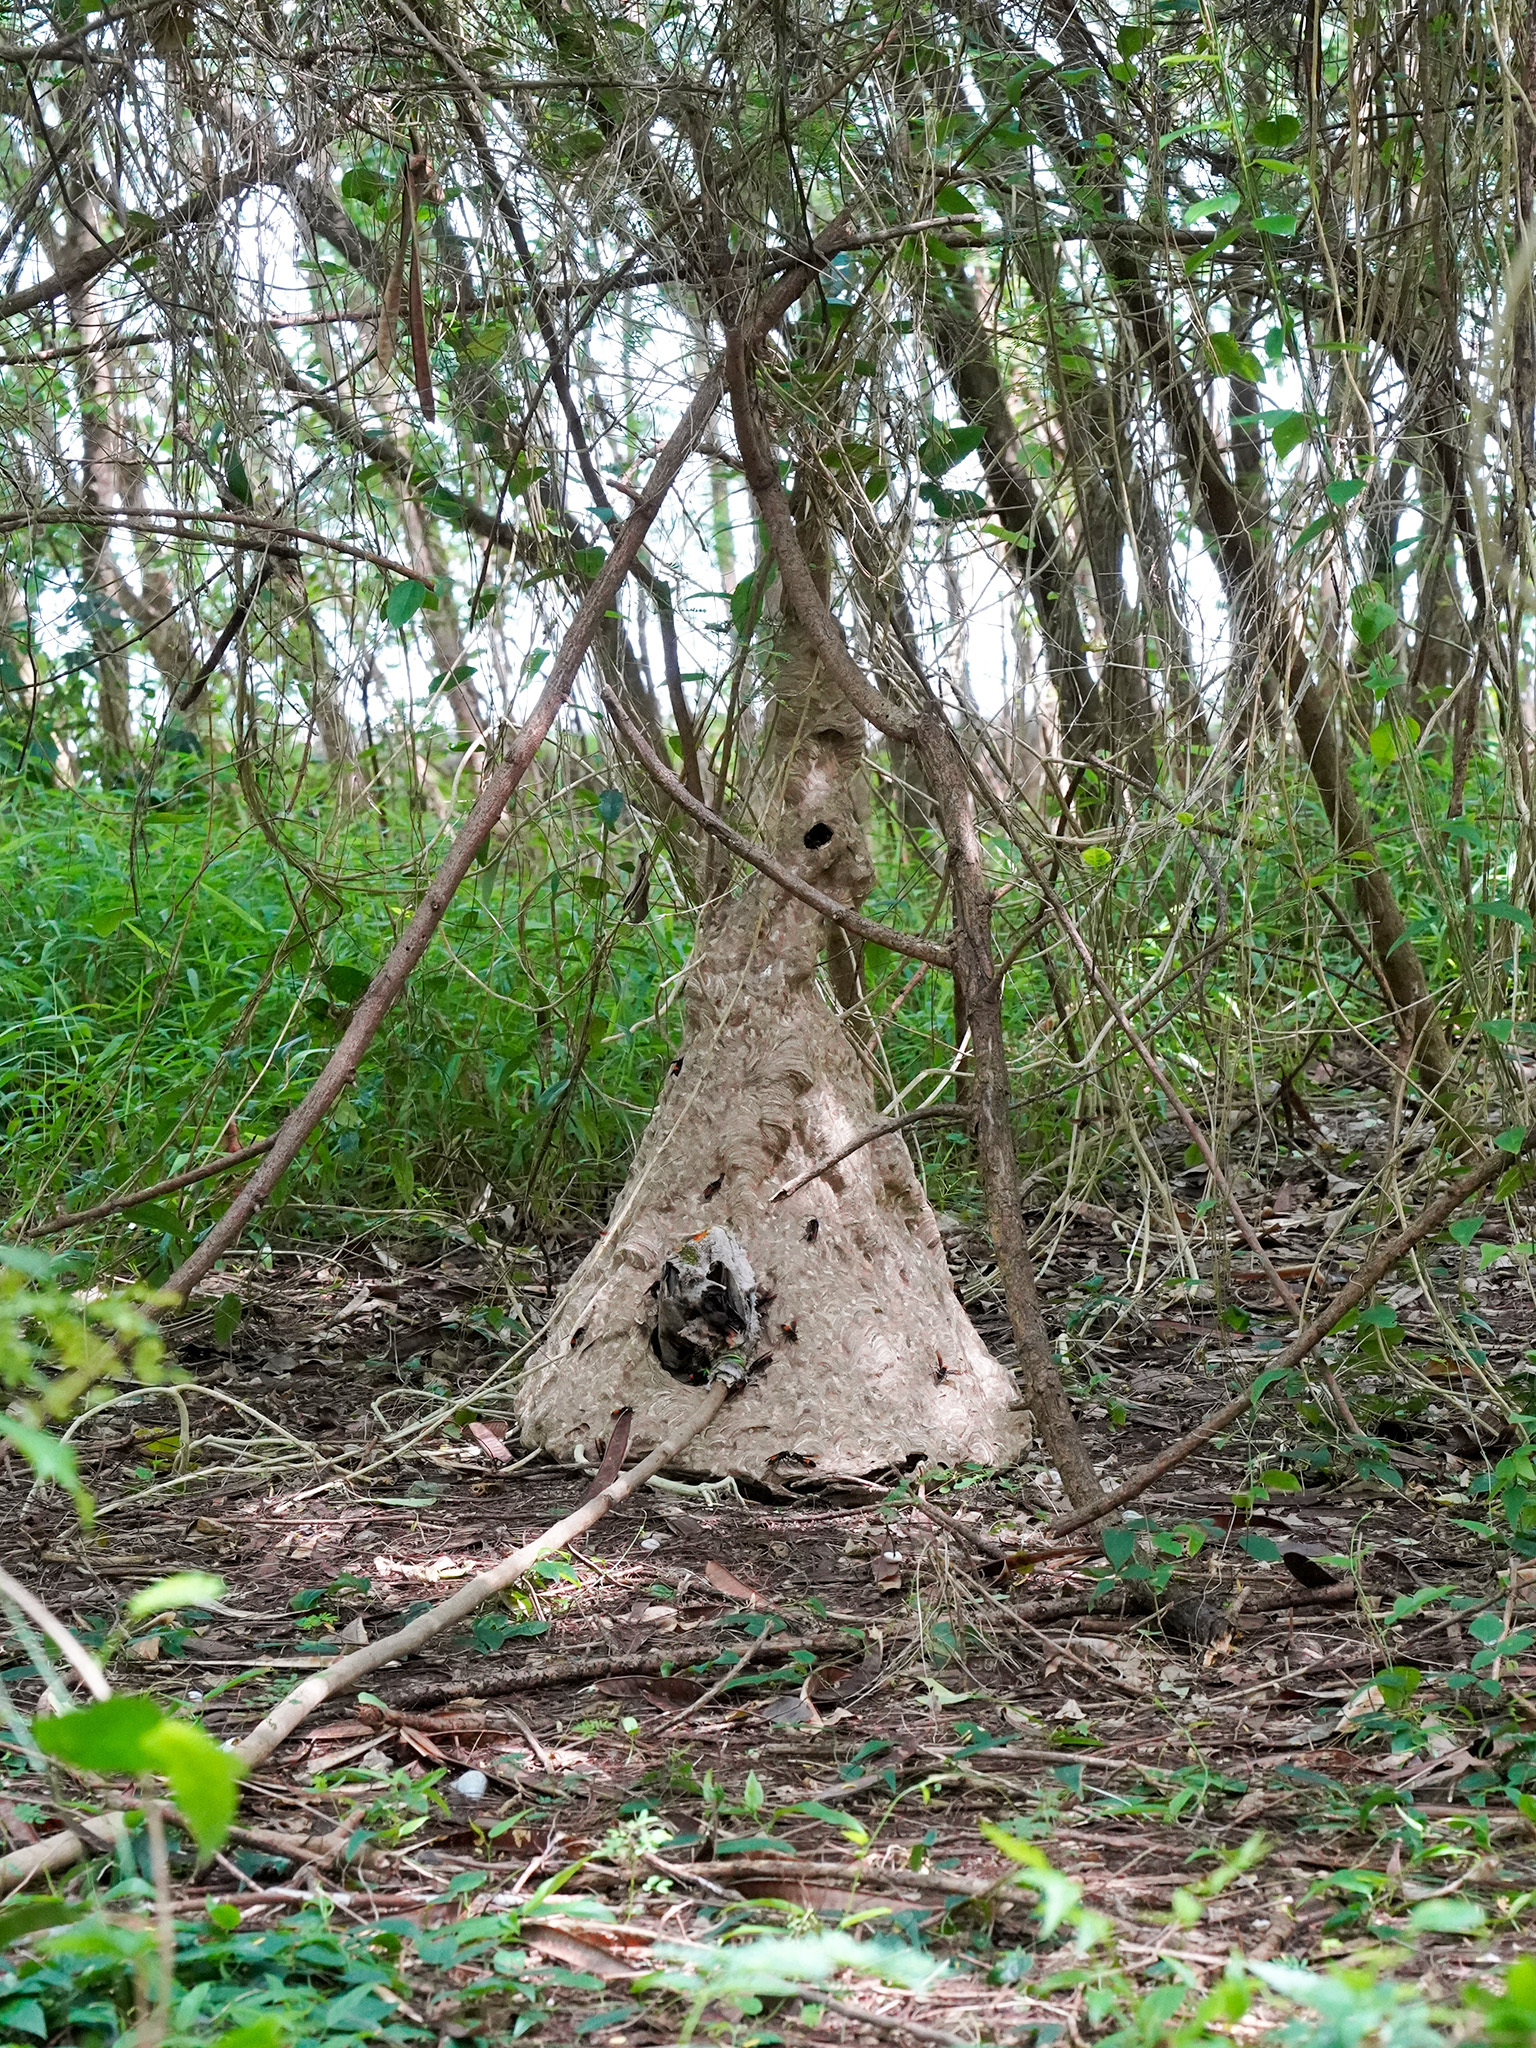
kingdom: Animalia
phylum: Arthropoda
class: Insecta
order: Hymenoptera
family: Vespidae
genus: Vespa
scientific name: Vespa affinis
